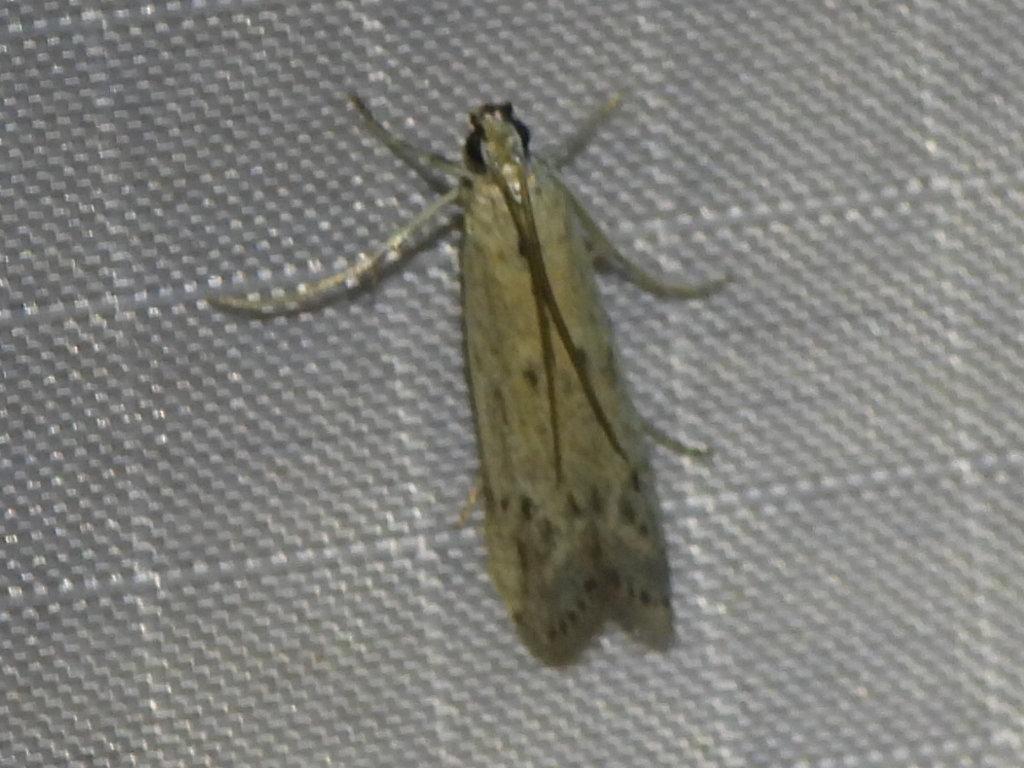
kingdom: Animalia
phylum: Arthropoda
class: Insecta
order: Lepidoptera
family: Pyralidae
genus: Homoeosoma
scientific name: Homoeosoma electella
